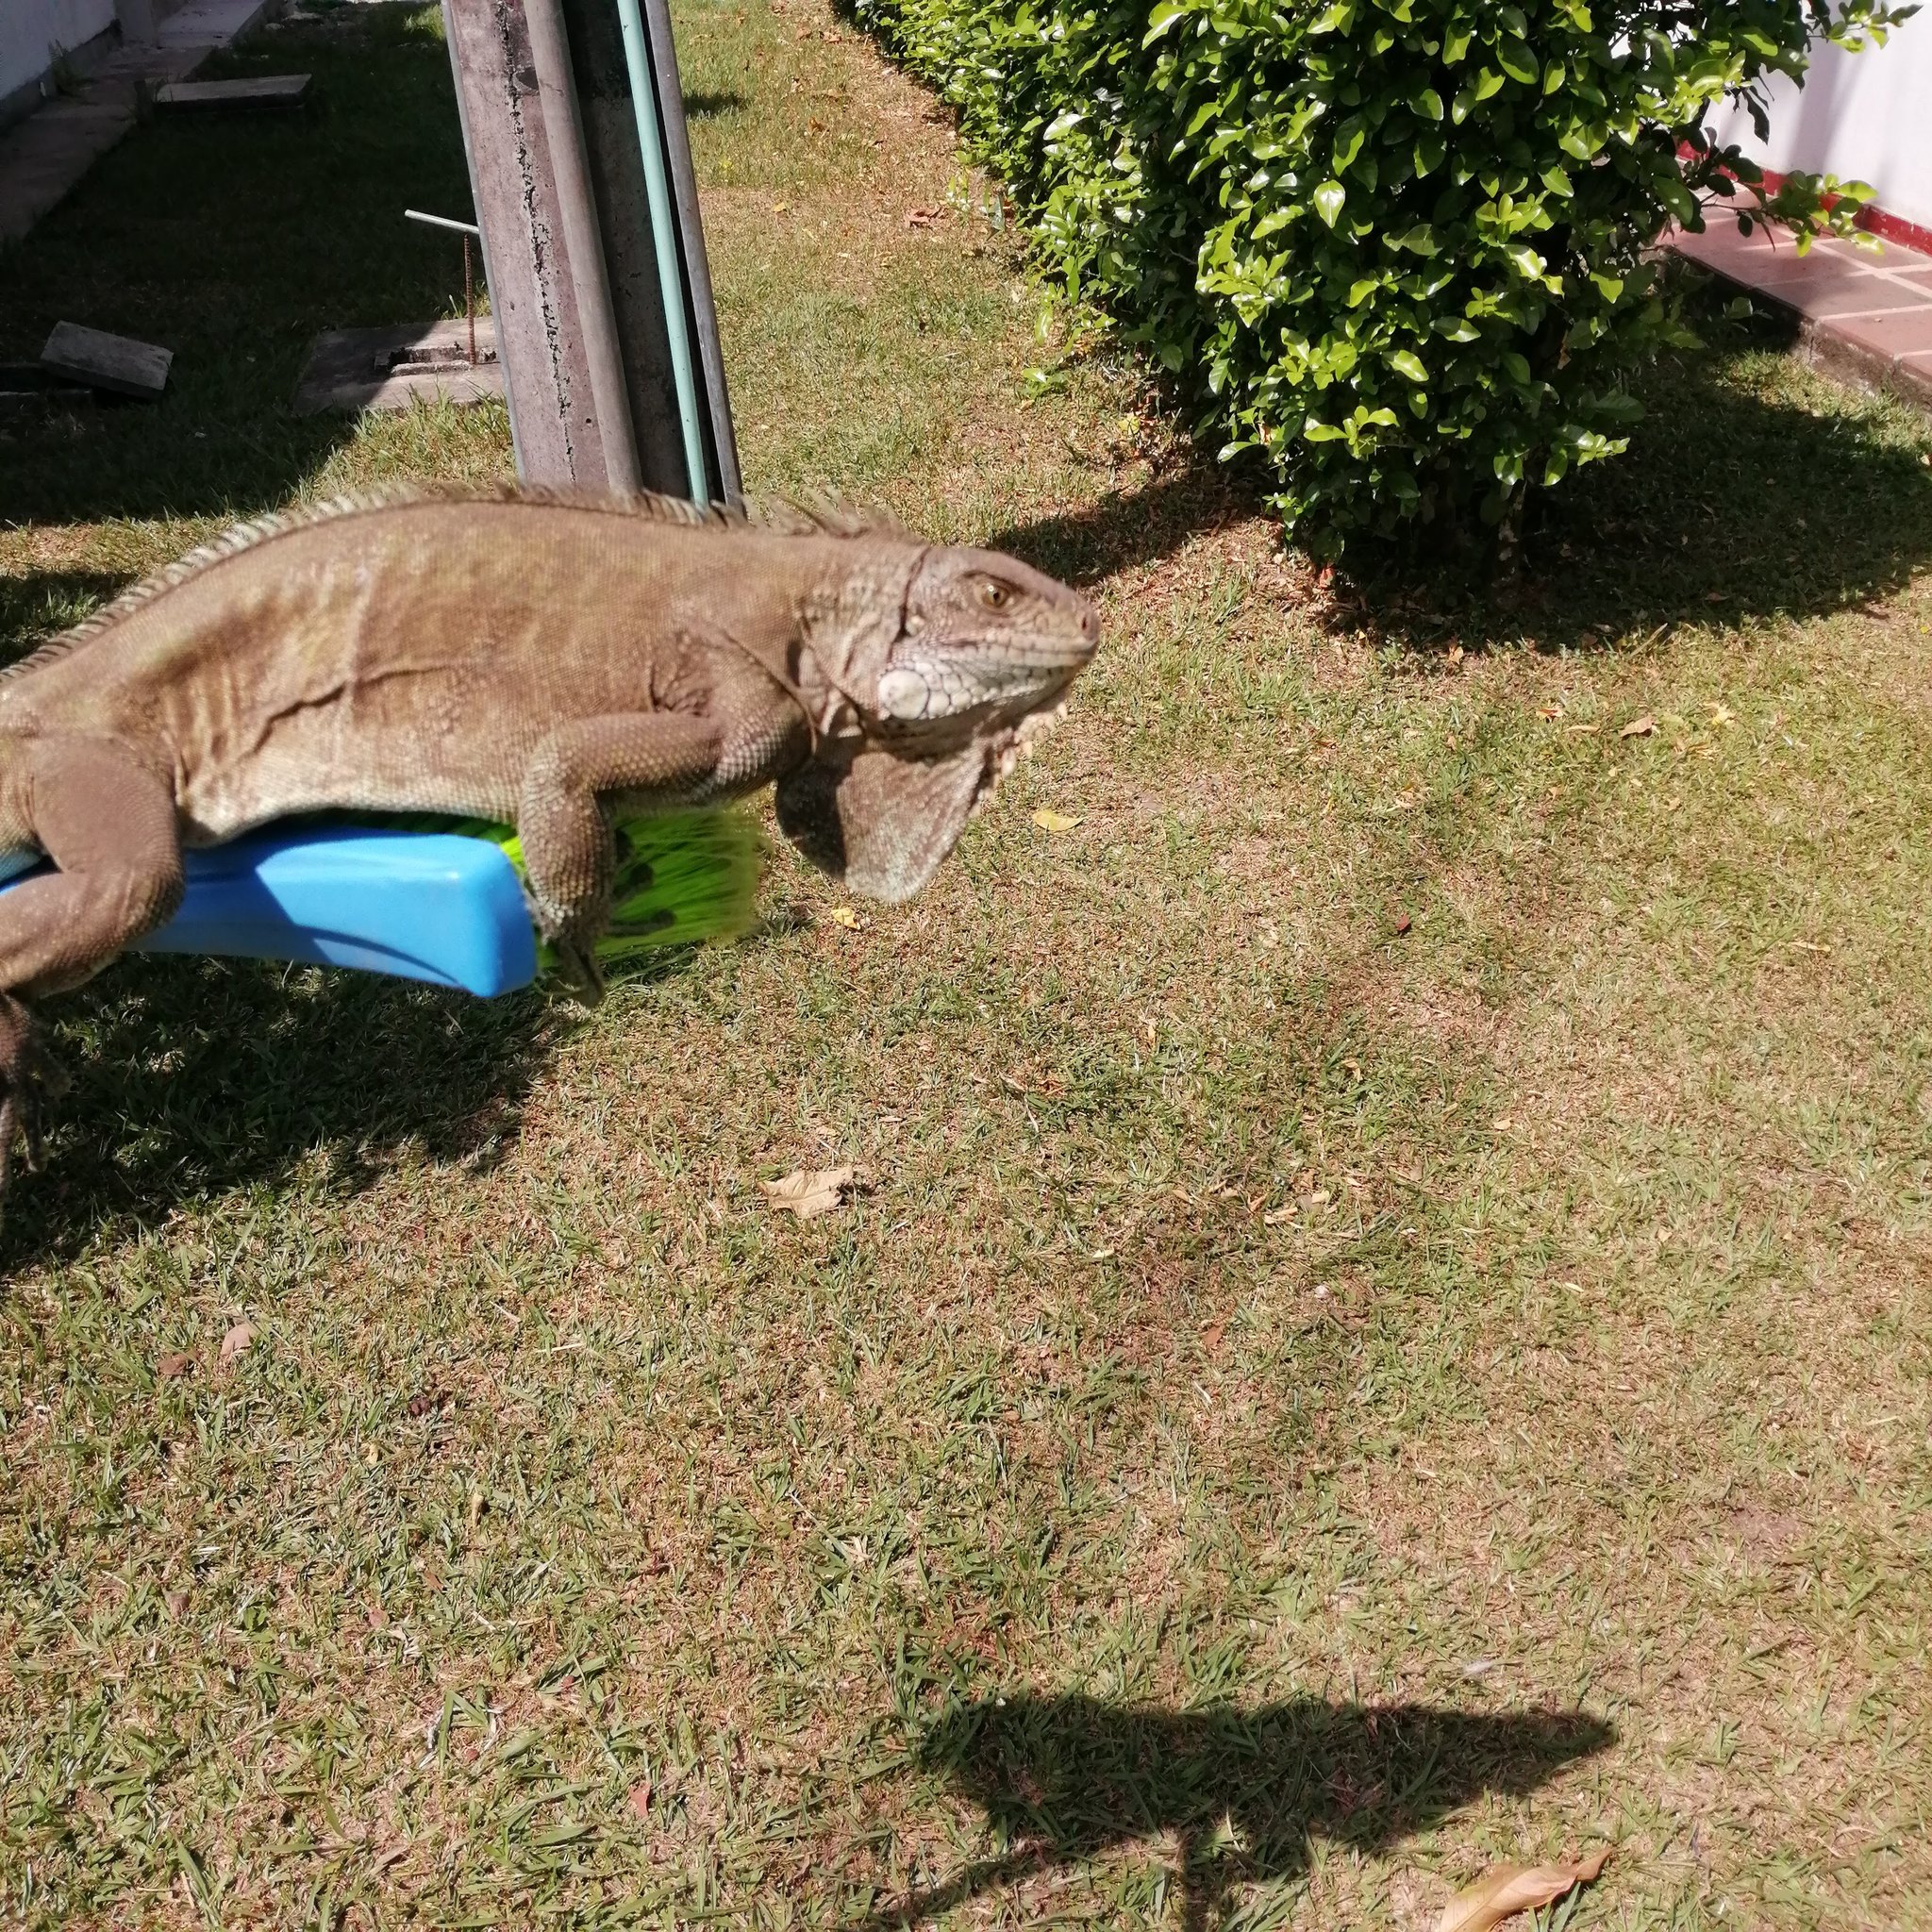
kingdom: Animalia
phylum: Chordata
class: Squamata
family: Iguanidae
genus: Iguana
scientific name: Iguana iguana
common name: Green iguana
